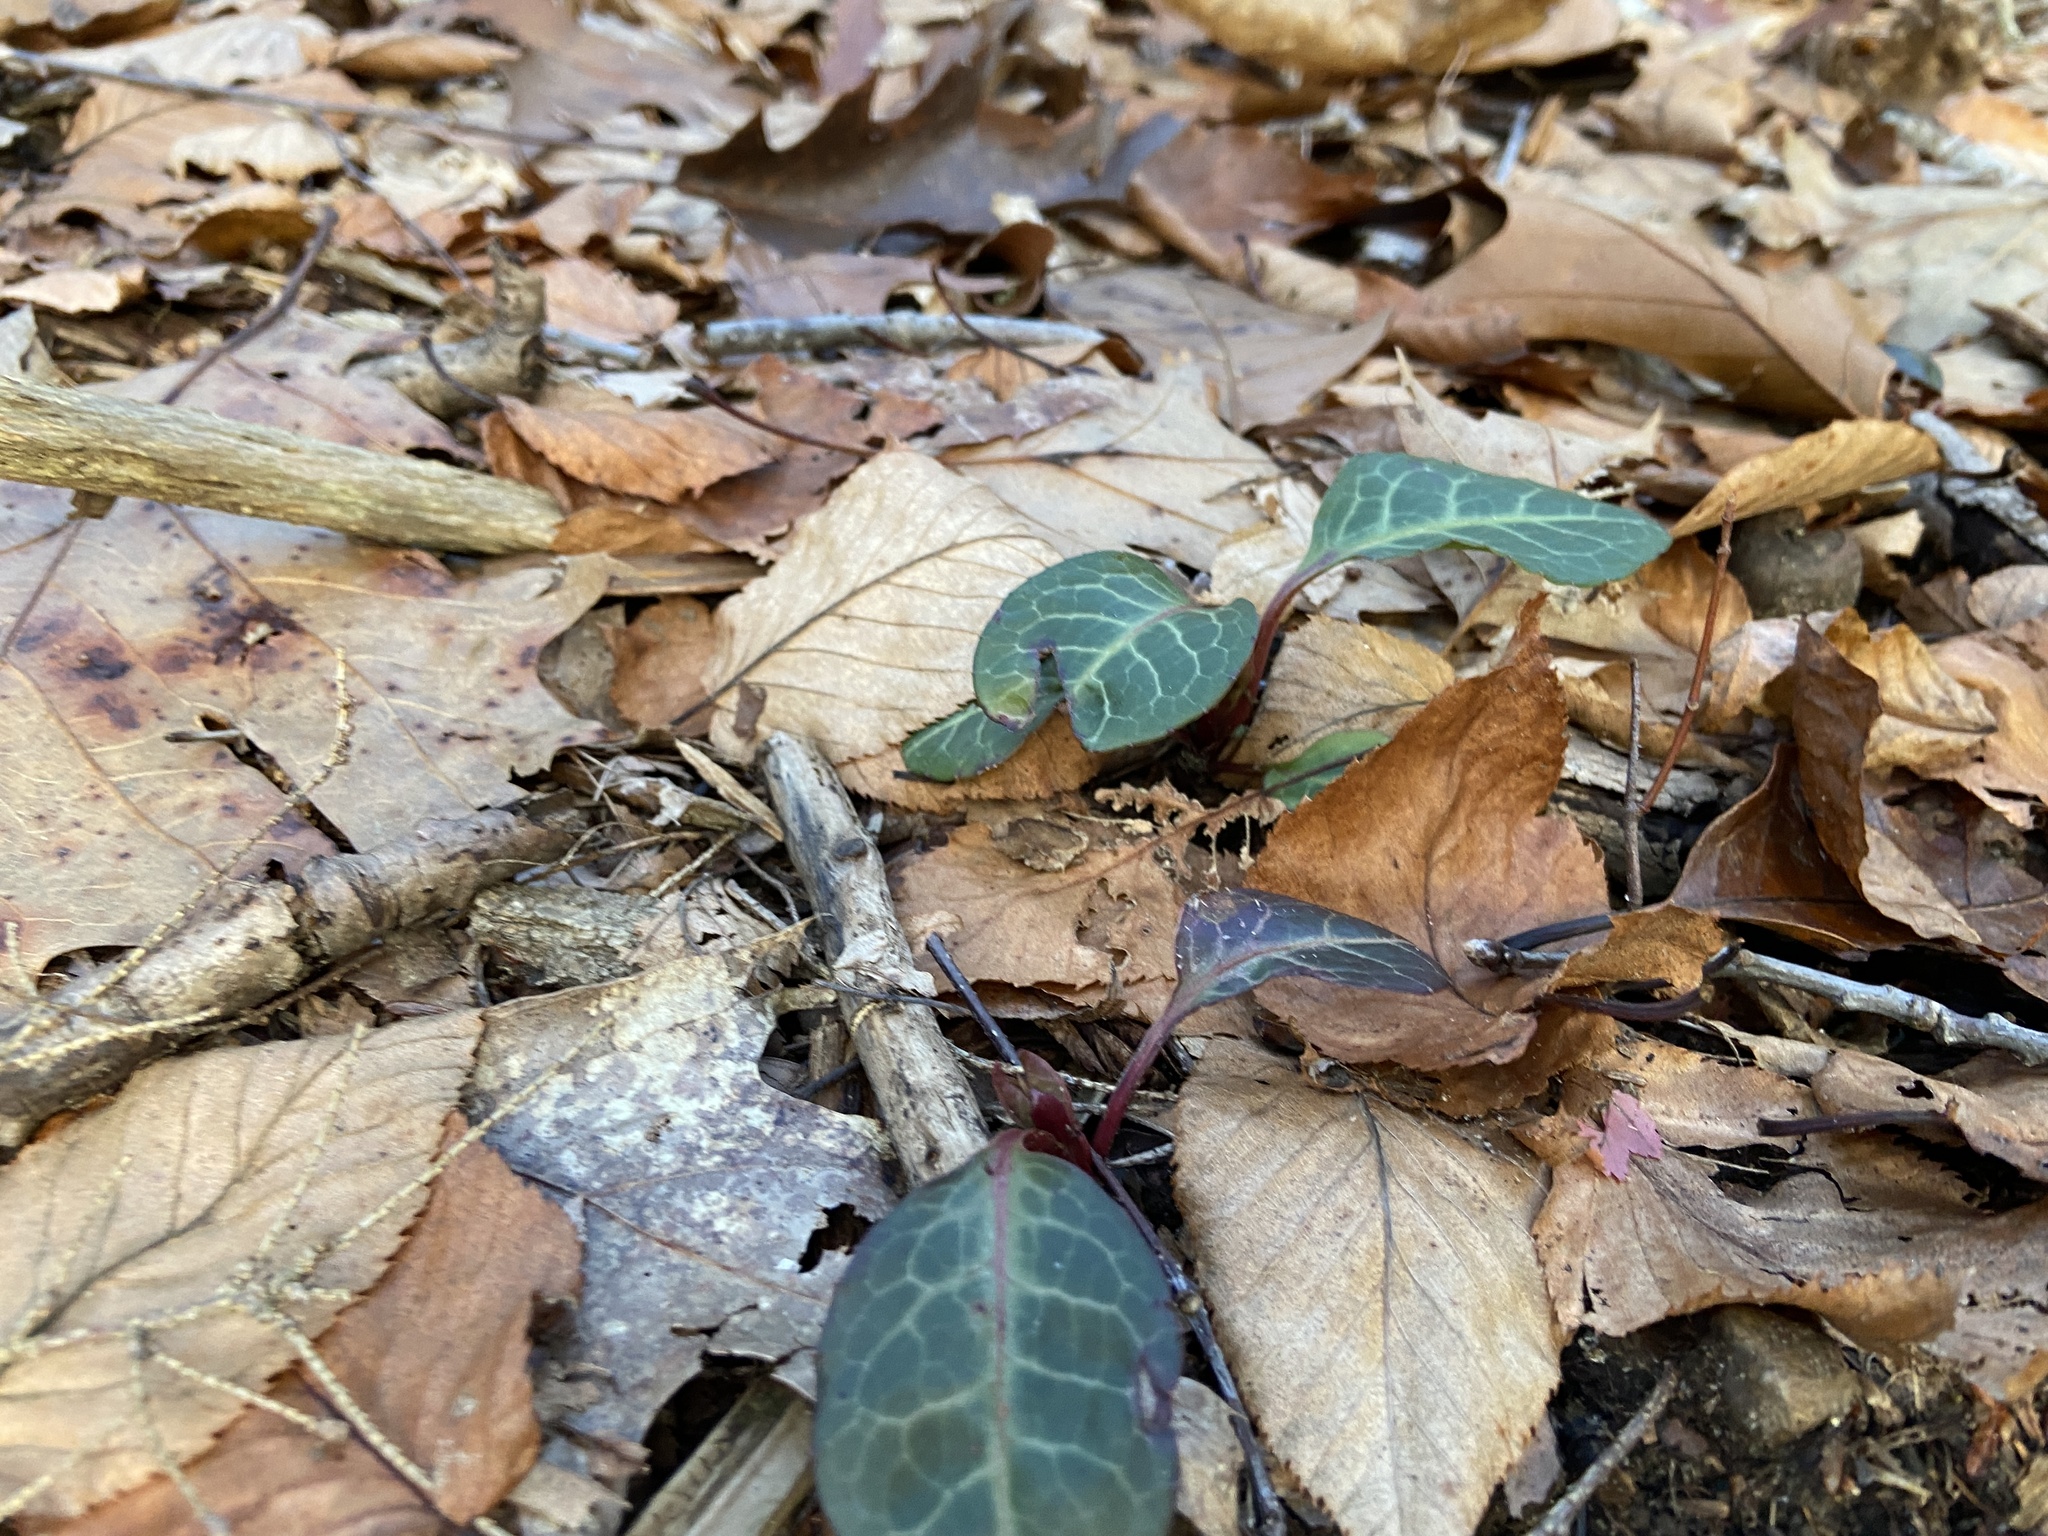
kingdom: Plantae
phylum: Tracheophyta
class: Magnoliopsida
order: Ericales
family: Ericaceae
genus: Pyrola
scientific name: Pyrola americana
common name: American wintergreen
